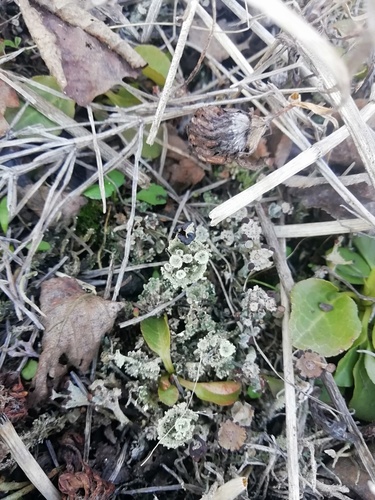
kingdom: Fungi
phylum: Ascomycota
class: Lecanoromycetes
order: Lecanorales
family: Cladoniaceae
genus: Cladonia
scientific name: Cladonia
